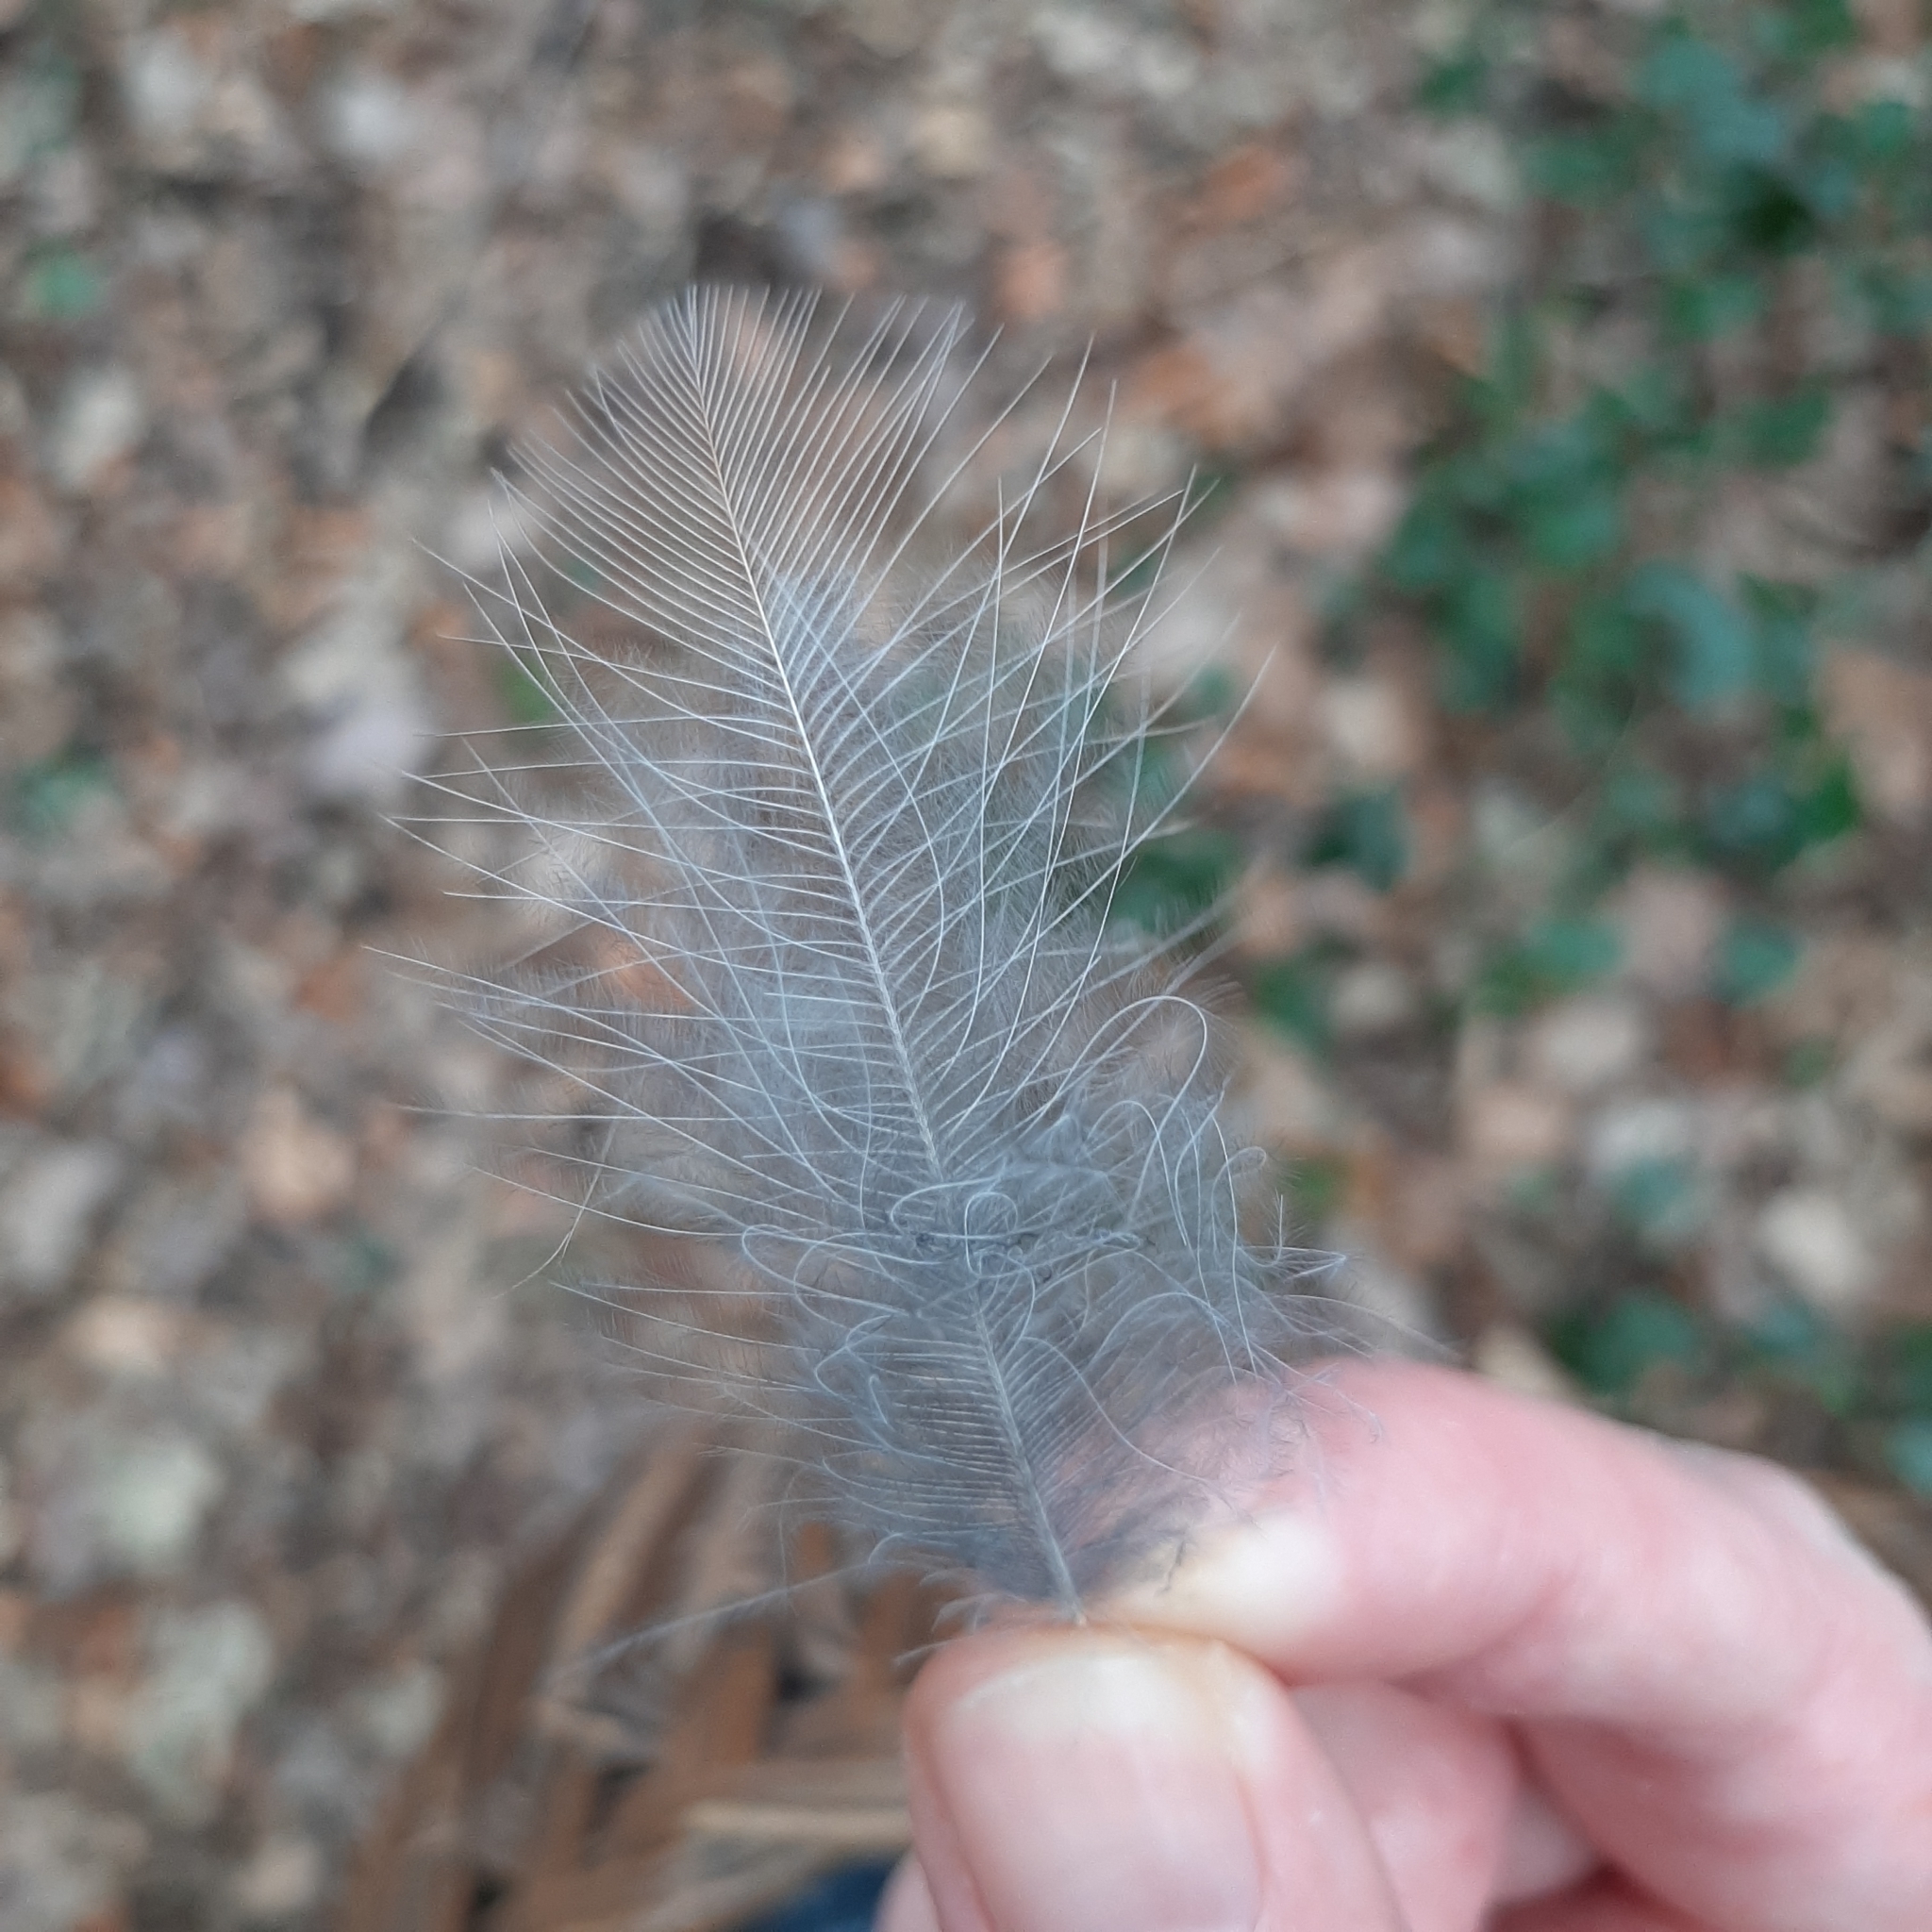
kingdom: Animalia
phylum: Chordata
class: Aves
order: Passeriformes
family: Corvidae
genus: Garrulus
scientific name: Garrulus glandarius
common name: Eurasian jay
